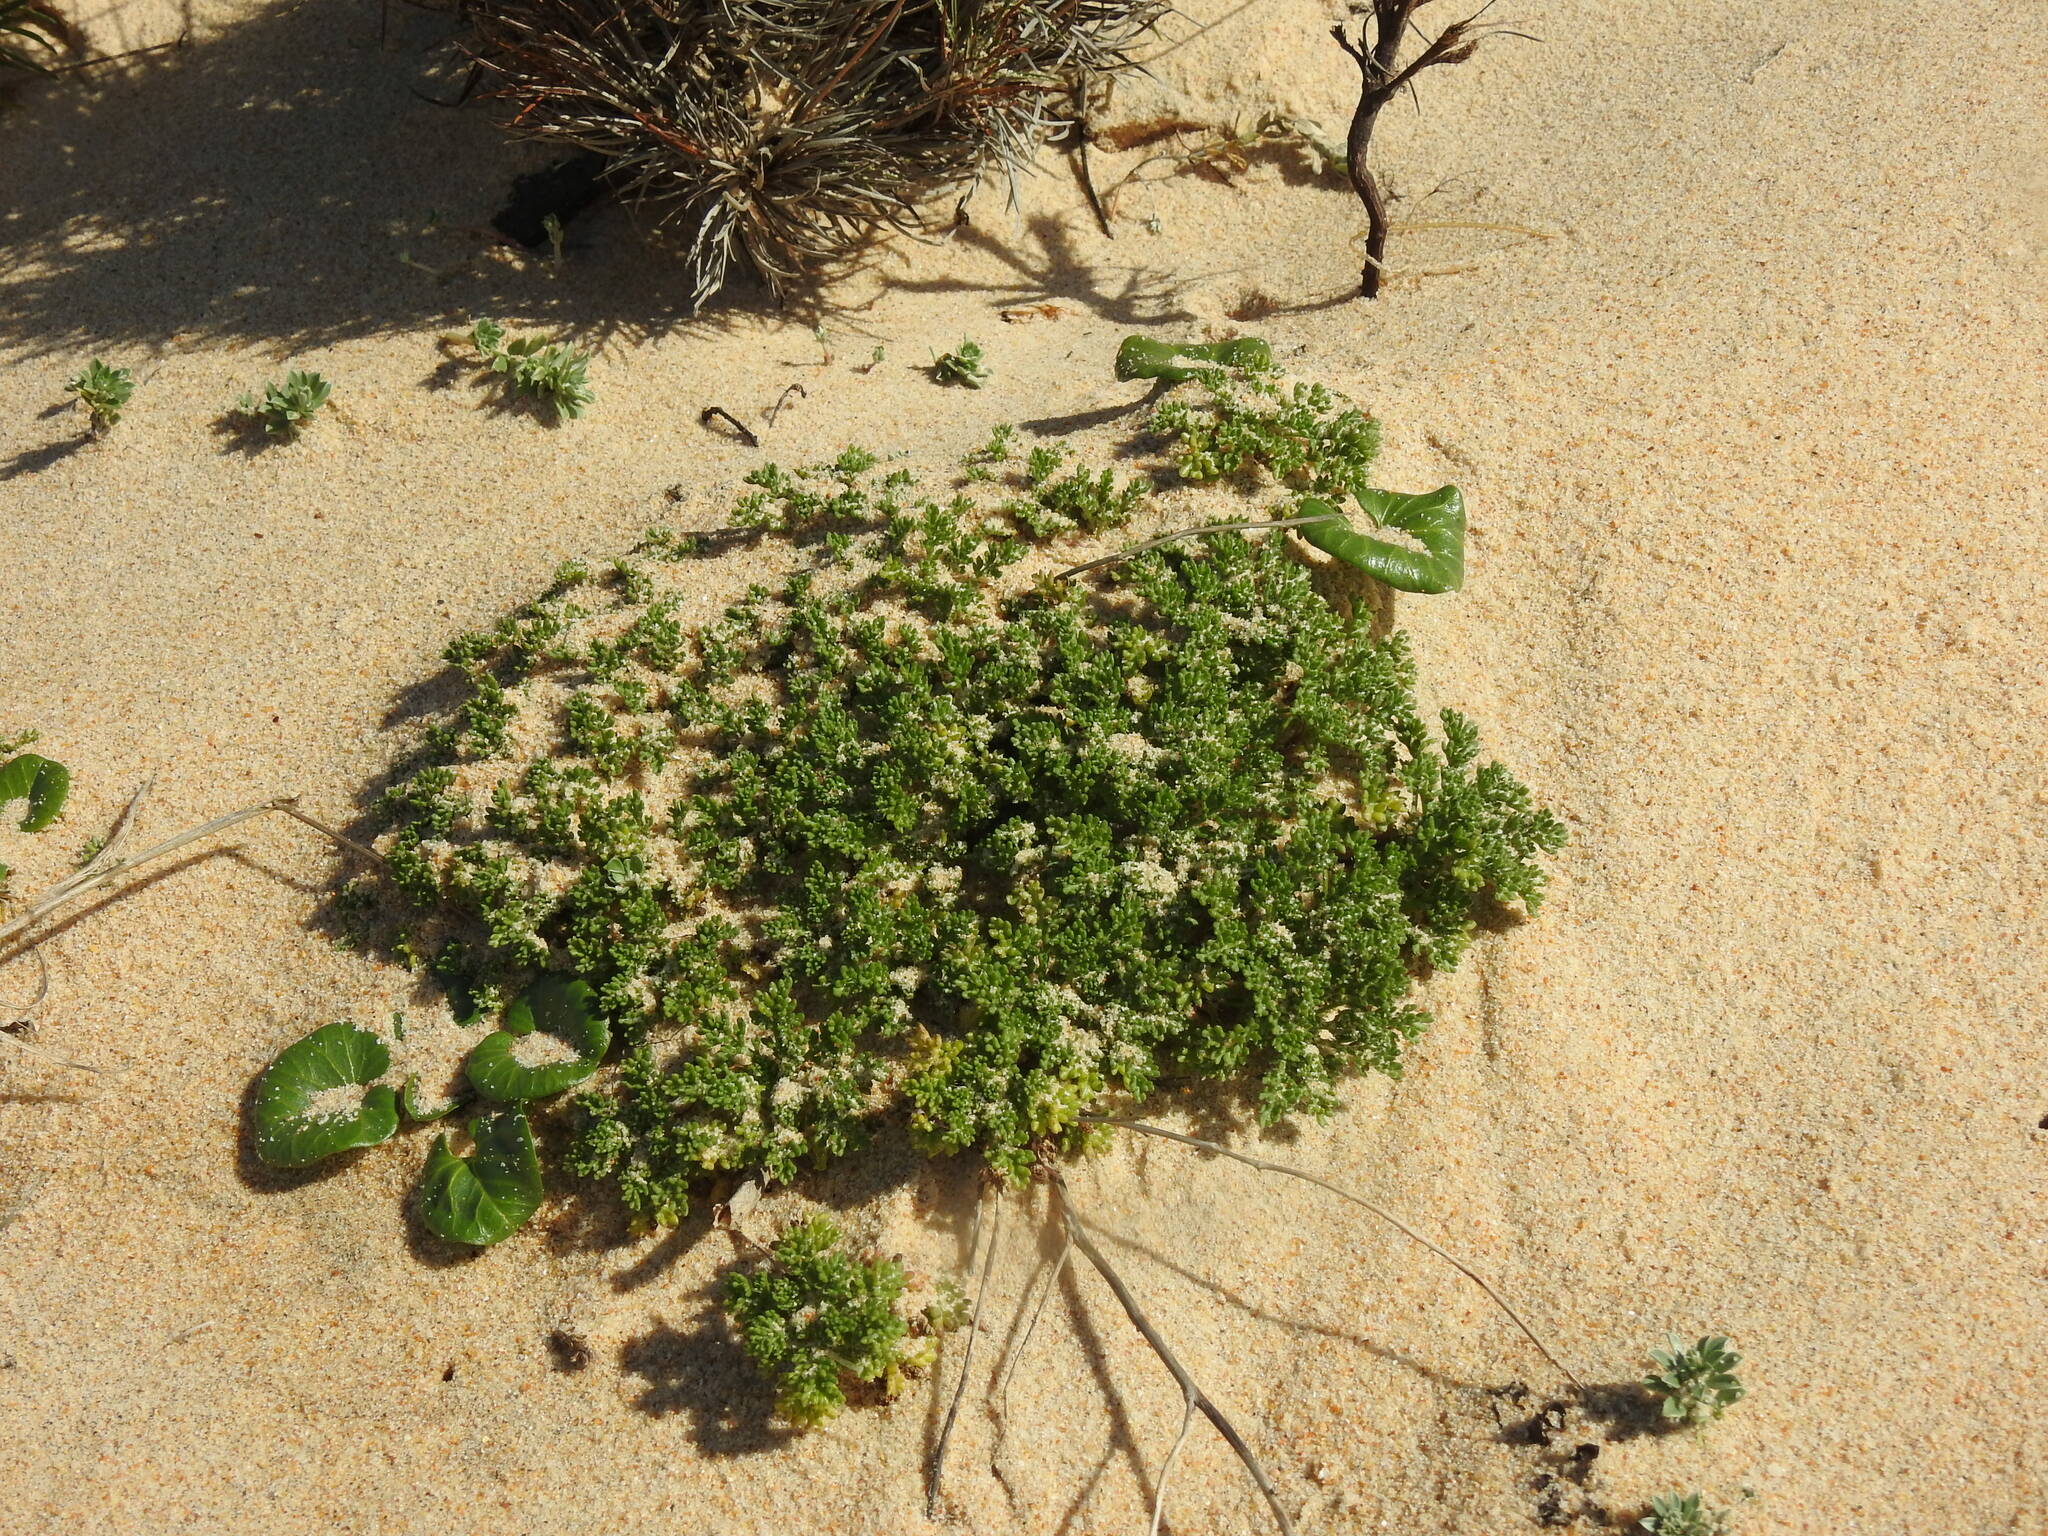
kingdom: Plantae
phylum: Tracheophyta
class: Magnoliopsida
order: Asterales
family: Asteraceae
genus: Anthemis
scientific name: Anthemis maritima
